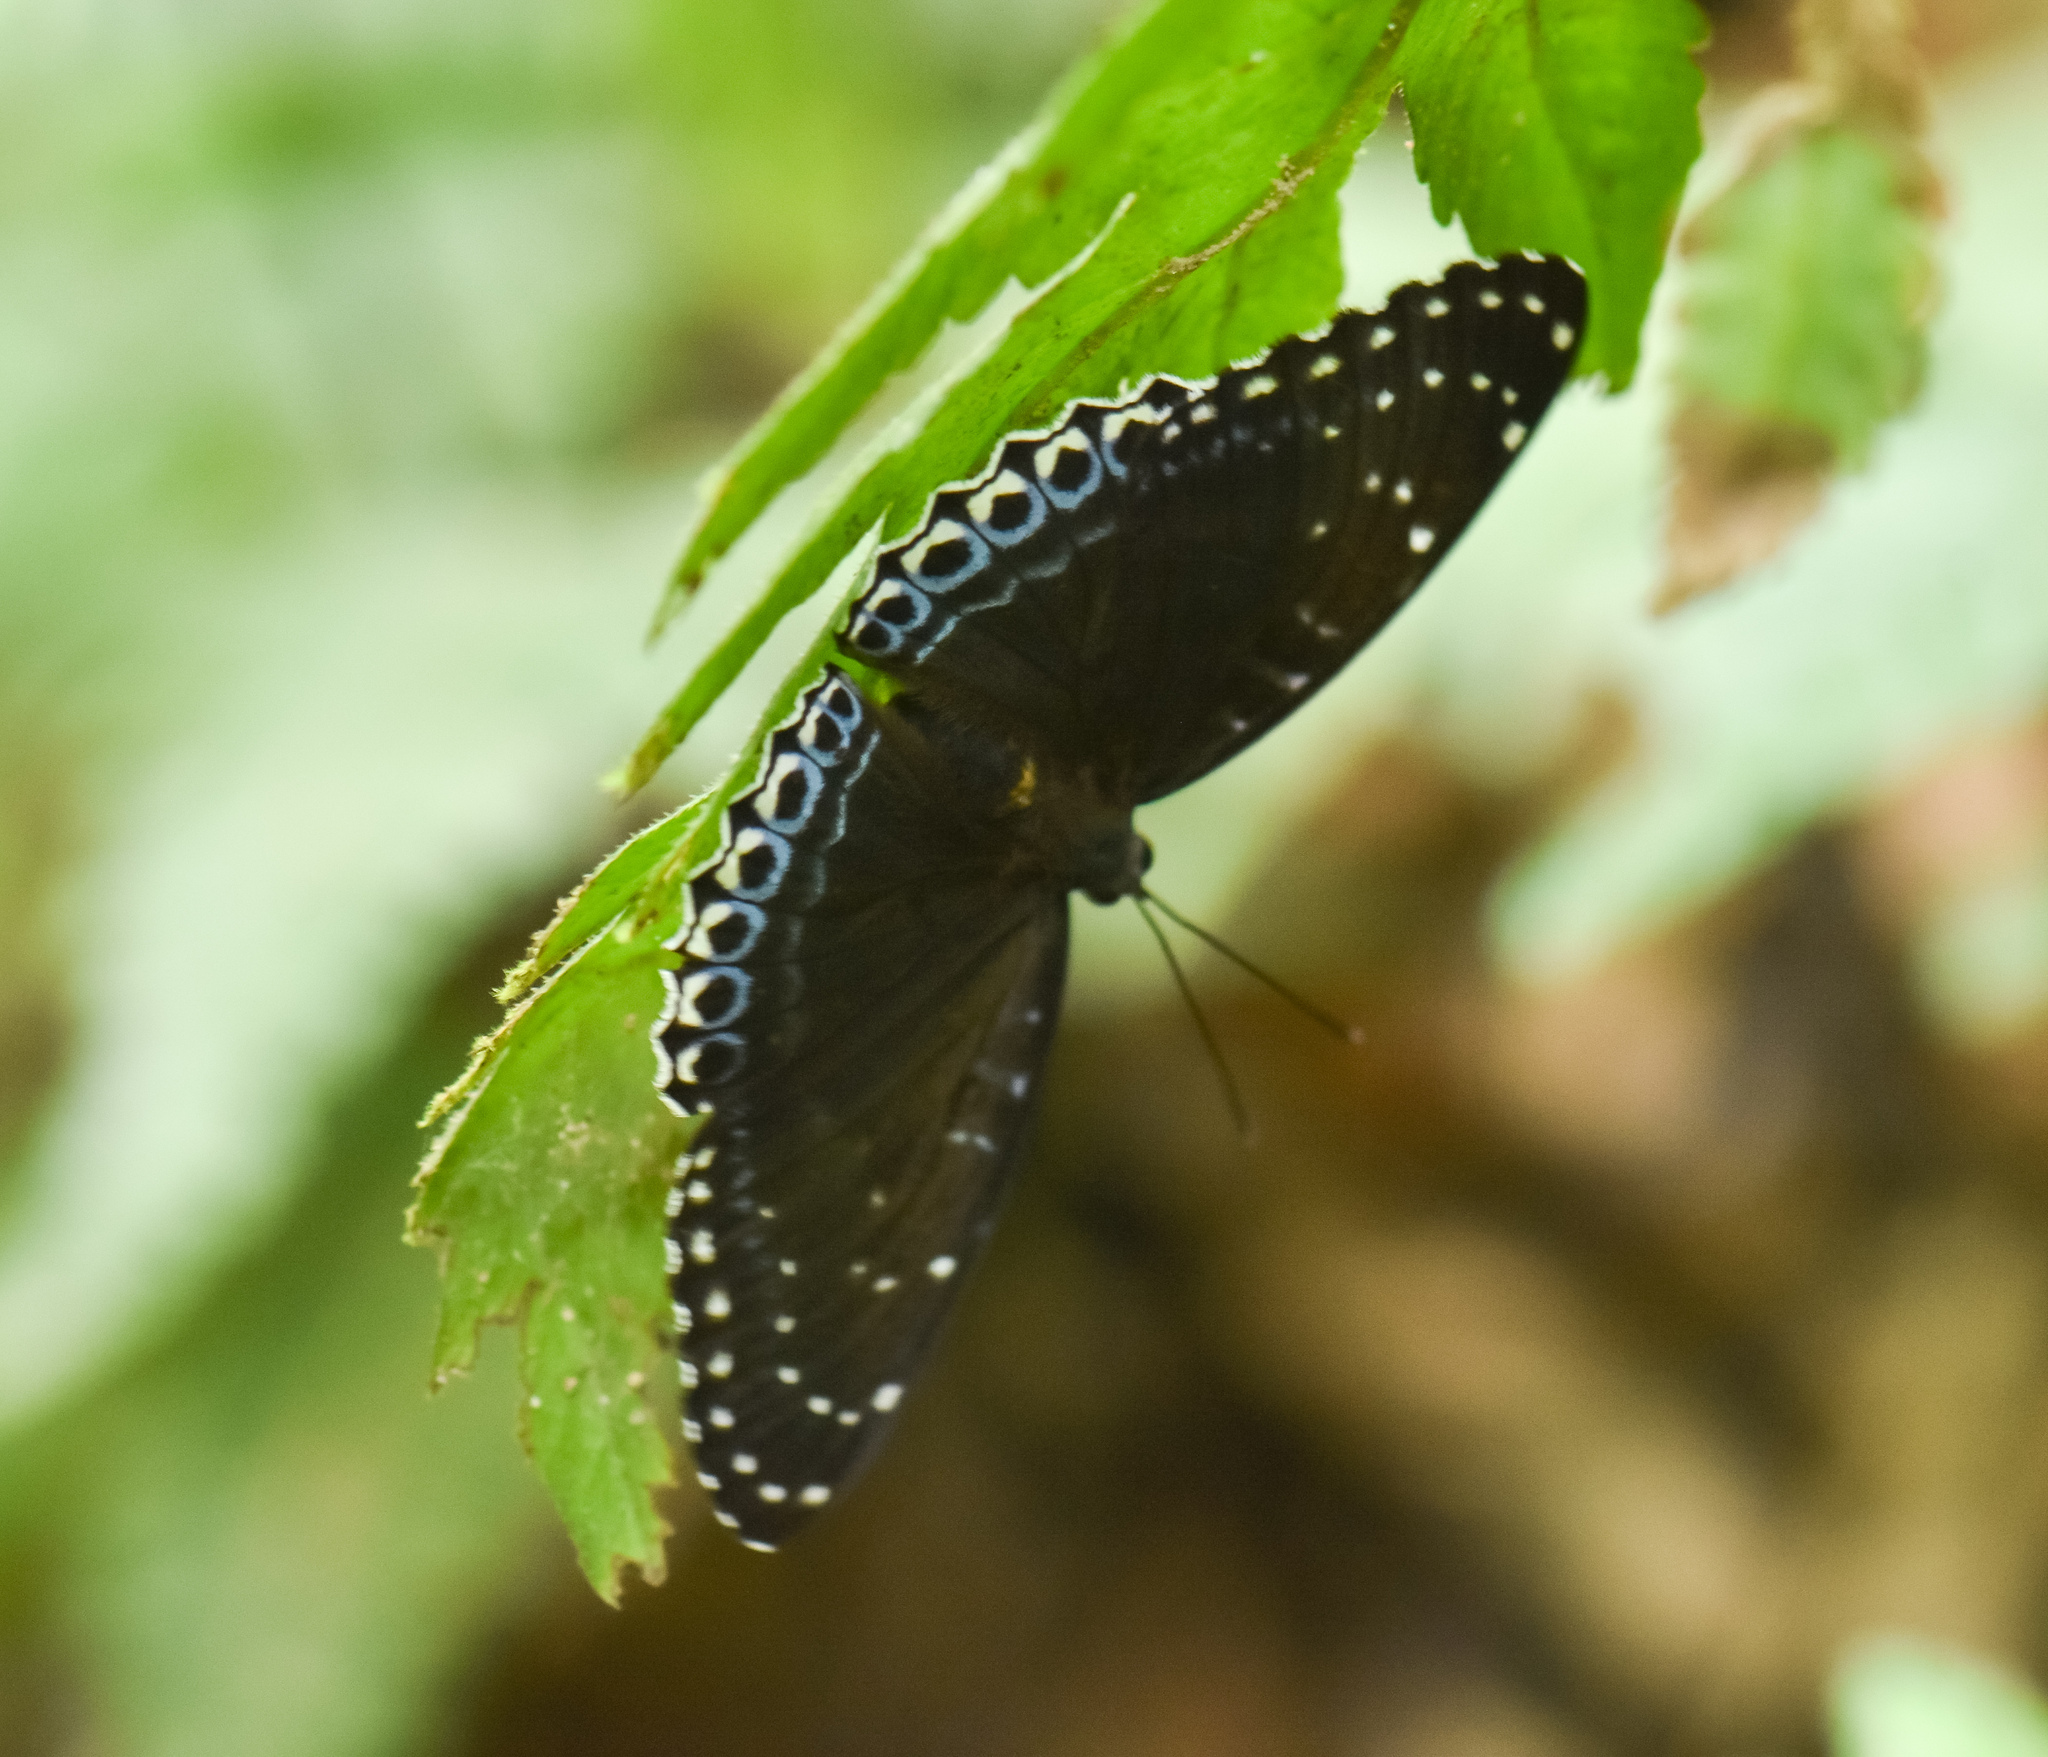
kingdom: Animalia
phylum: Arthropoda
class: Insecta
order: Lepidoptera
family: Nymphalidae
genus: Stibochiona
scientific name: Stibochiona nicea
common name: Popinjay
